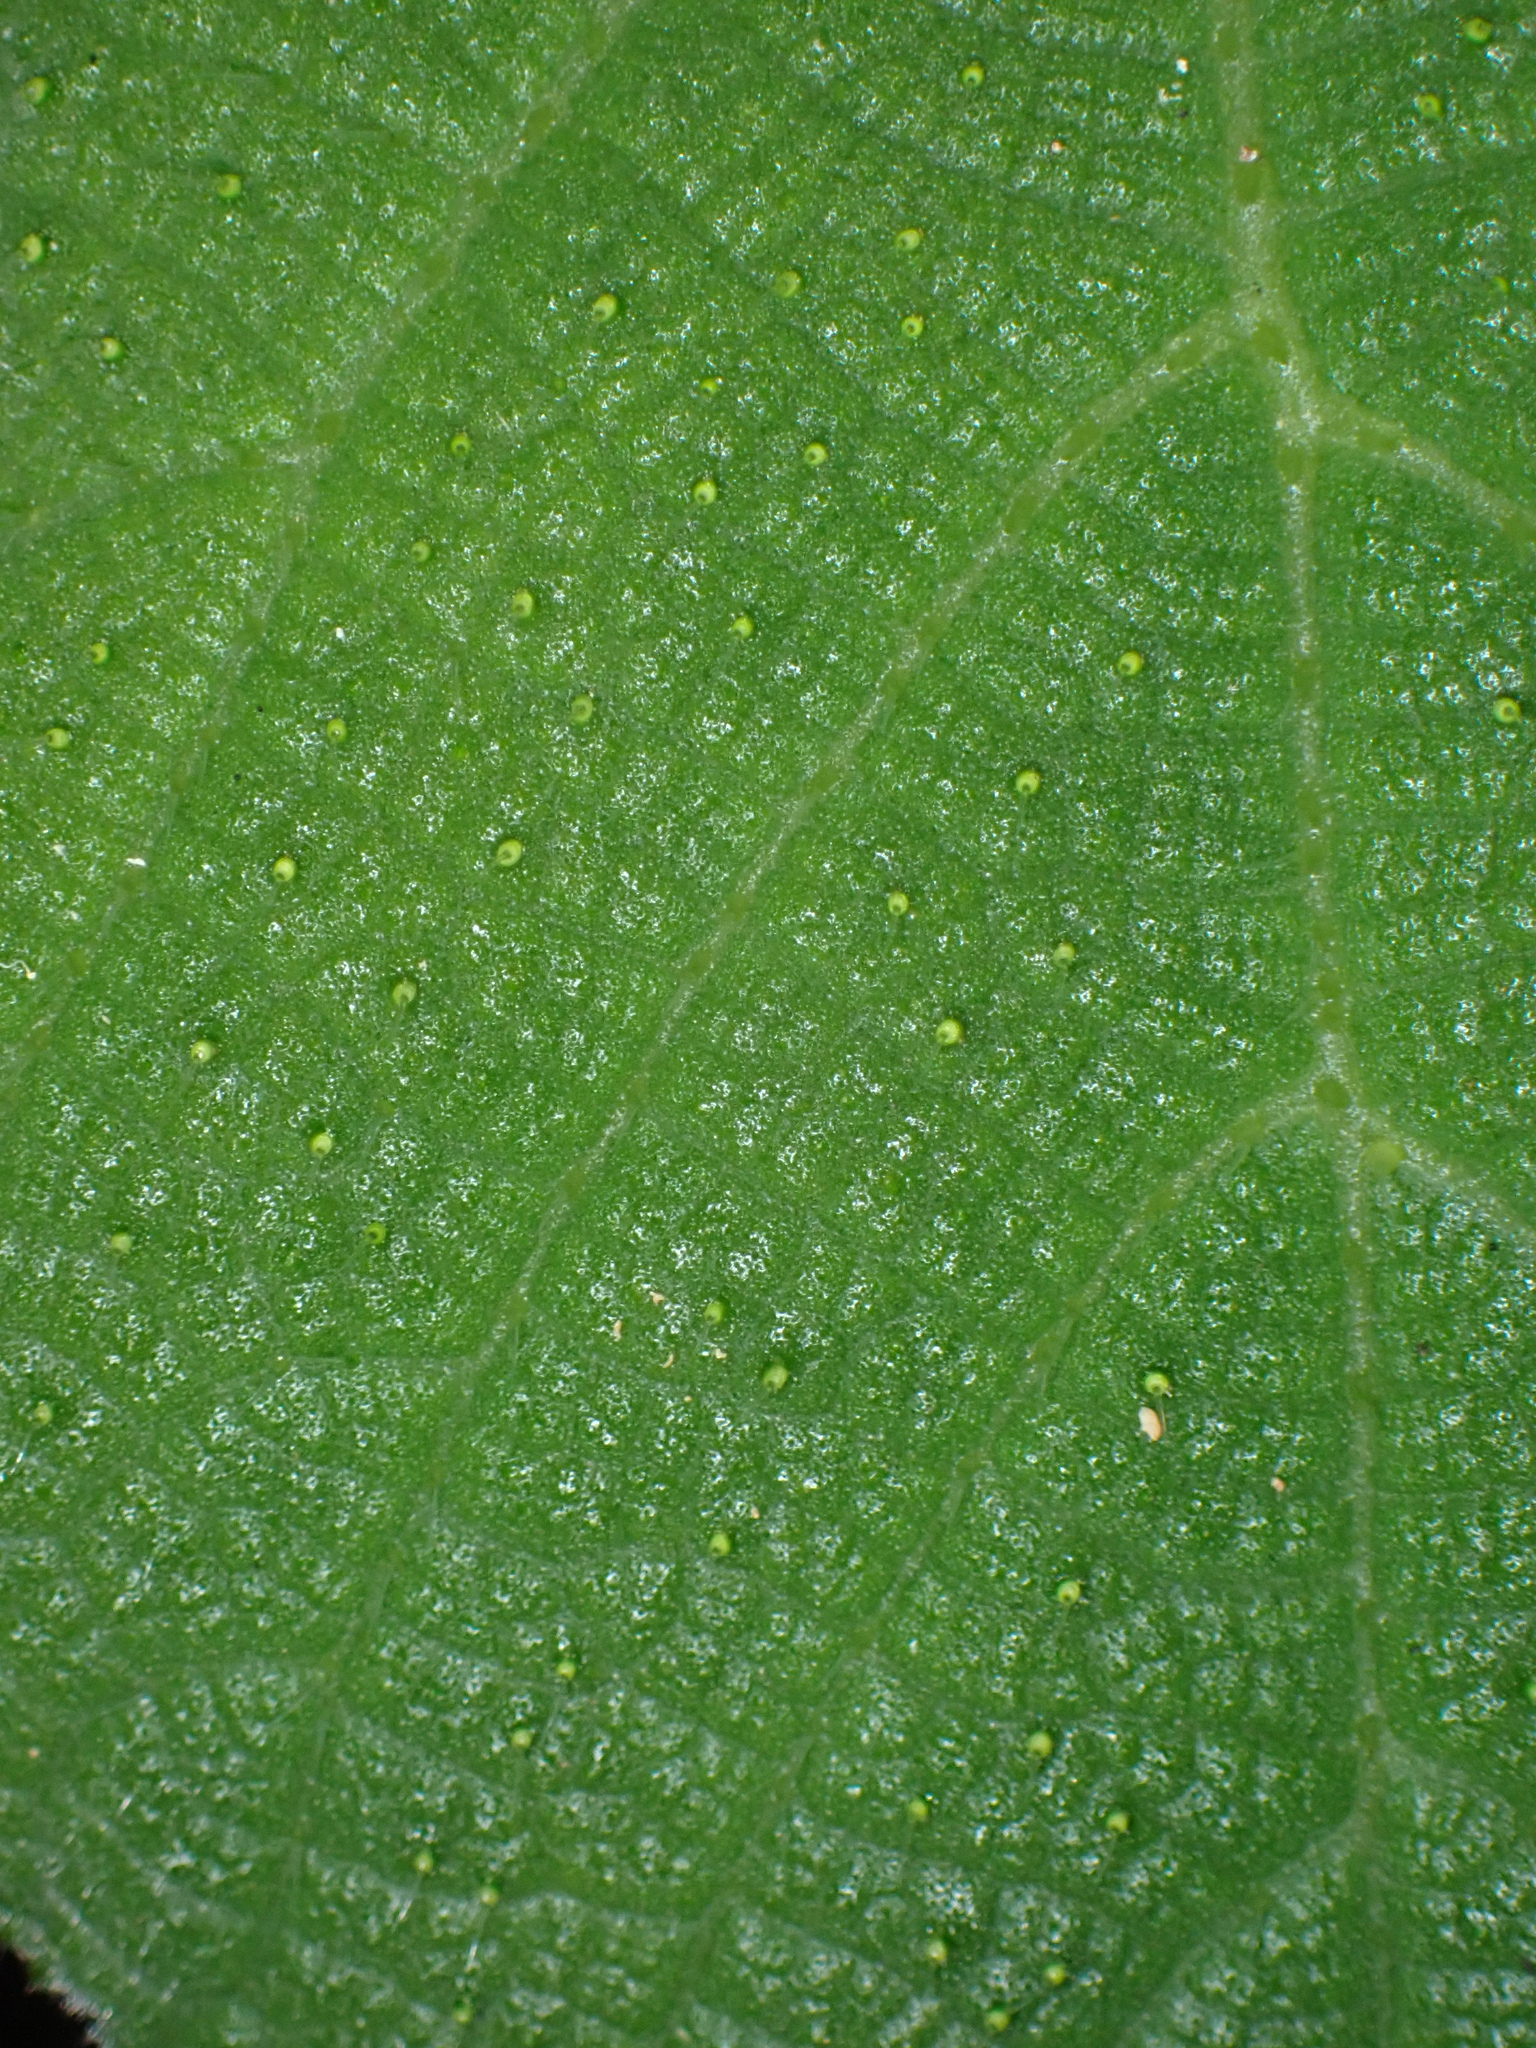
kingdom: Plantae
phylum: Tracheophyta
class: Magnoliopsida
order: Rosales
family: Urticaceae
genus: Dendrocnide
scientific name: Dendrocnide excelsa
